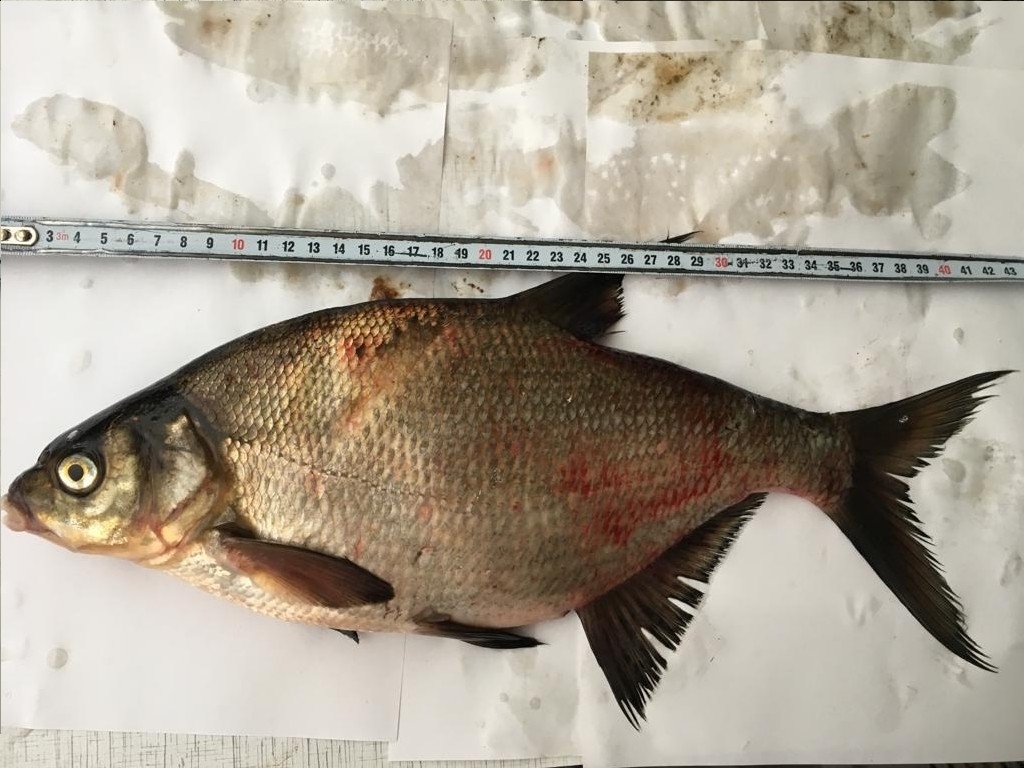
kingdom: Animalia
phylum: Chordata
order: Cypriniformes
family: Cyprinidae
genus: Abramis
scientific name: Abramis brama
